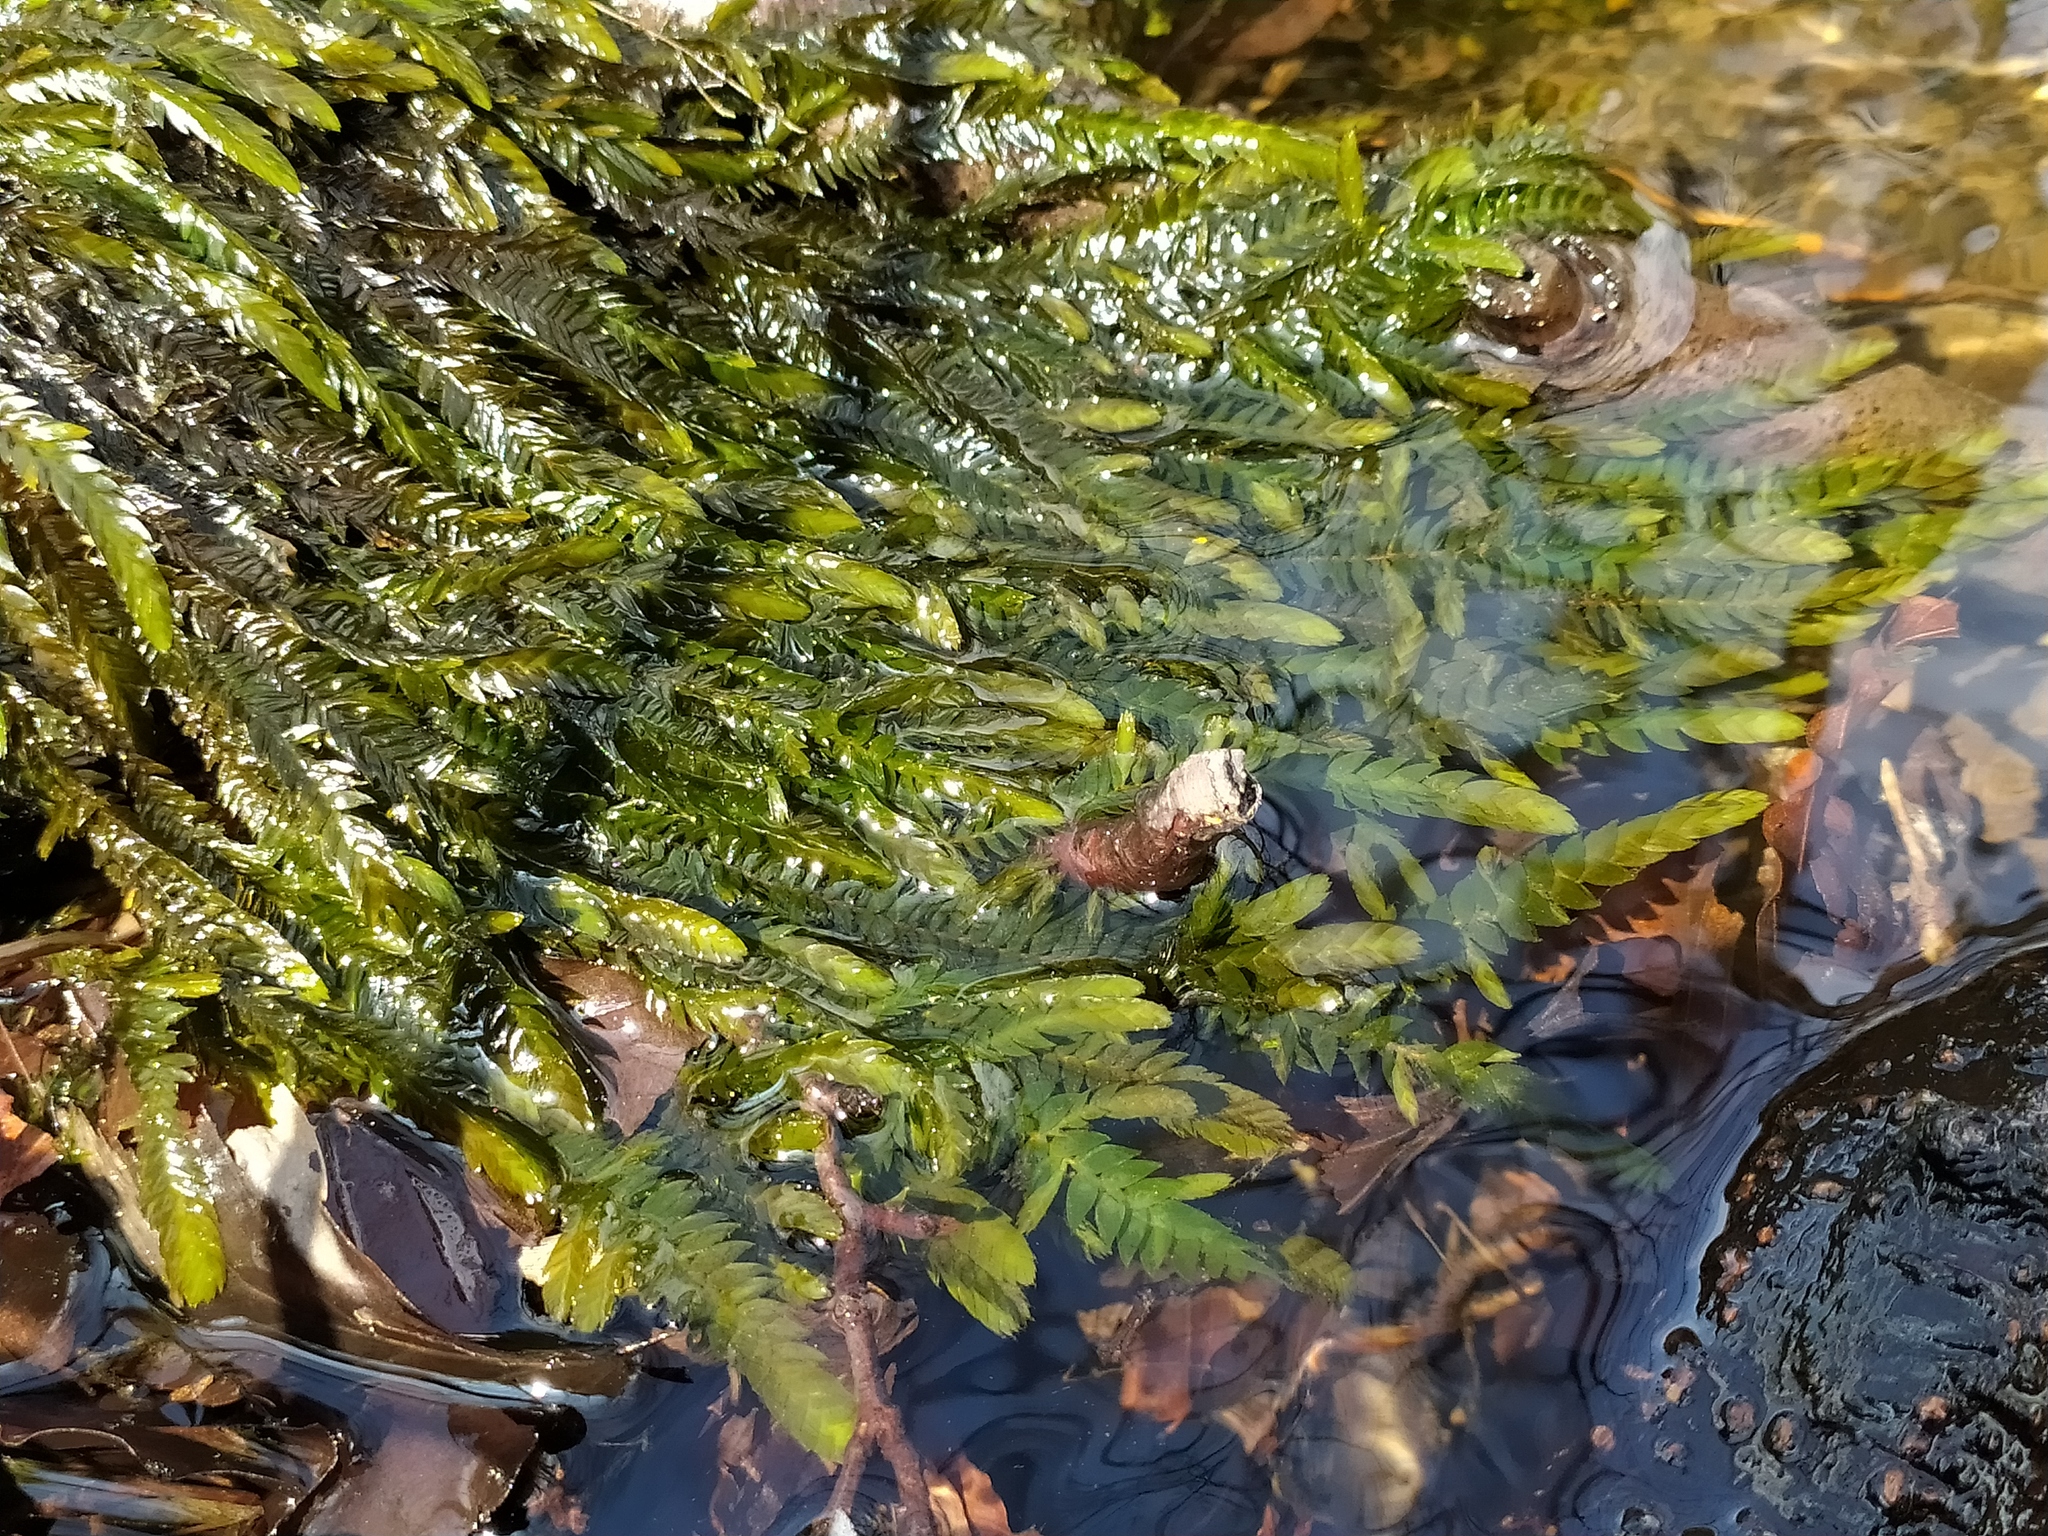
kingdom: Plantae
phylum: Bryophyta
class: Bryopsida
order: Hypnales
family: Fontinalaceae
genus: Fontinalis
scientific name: Fontinalis antipyretica
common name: Greater water-moss
